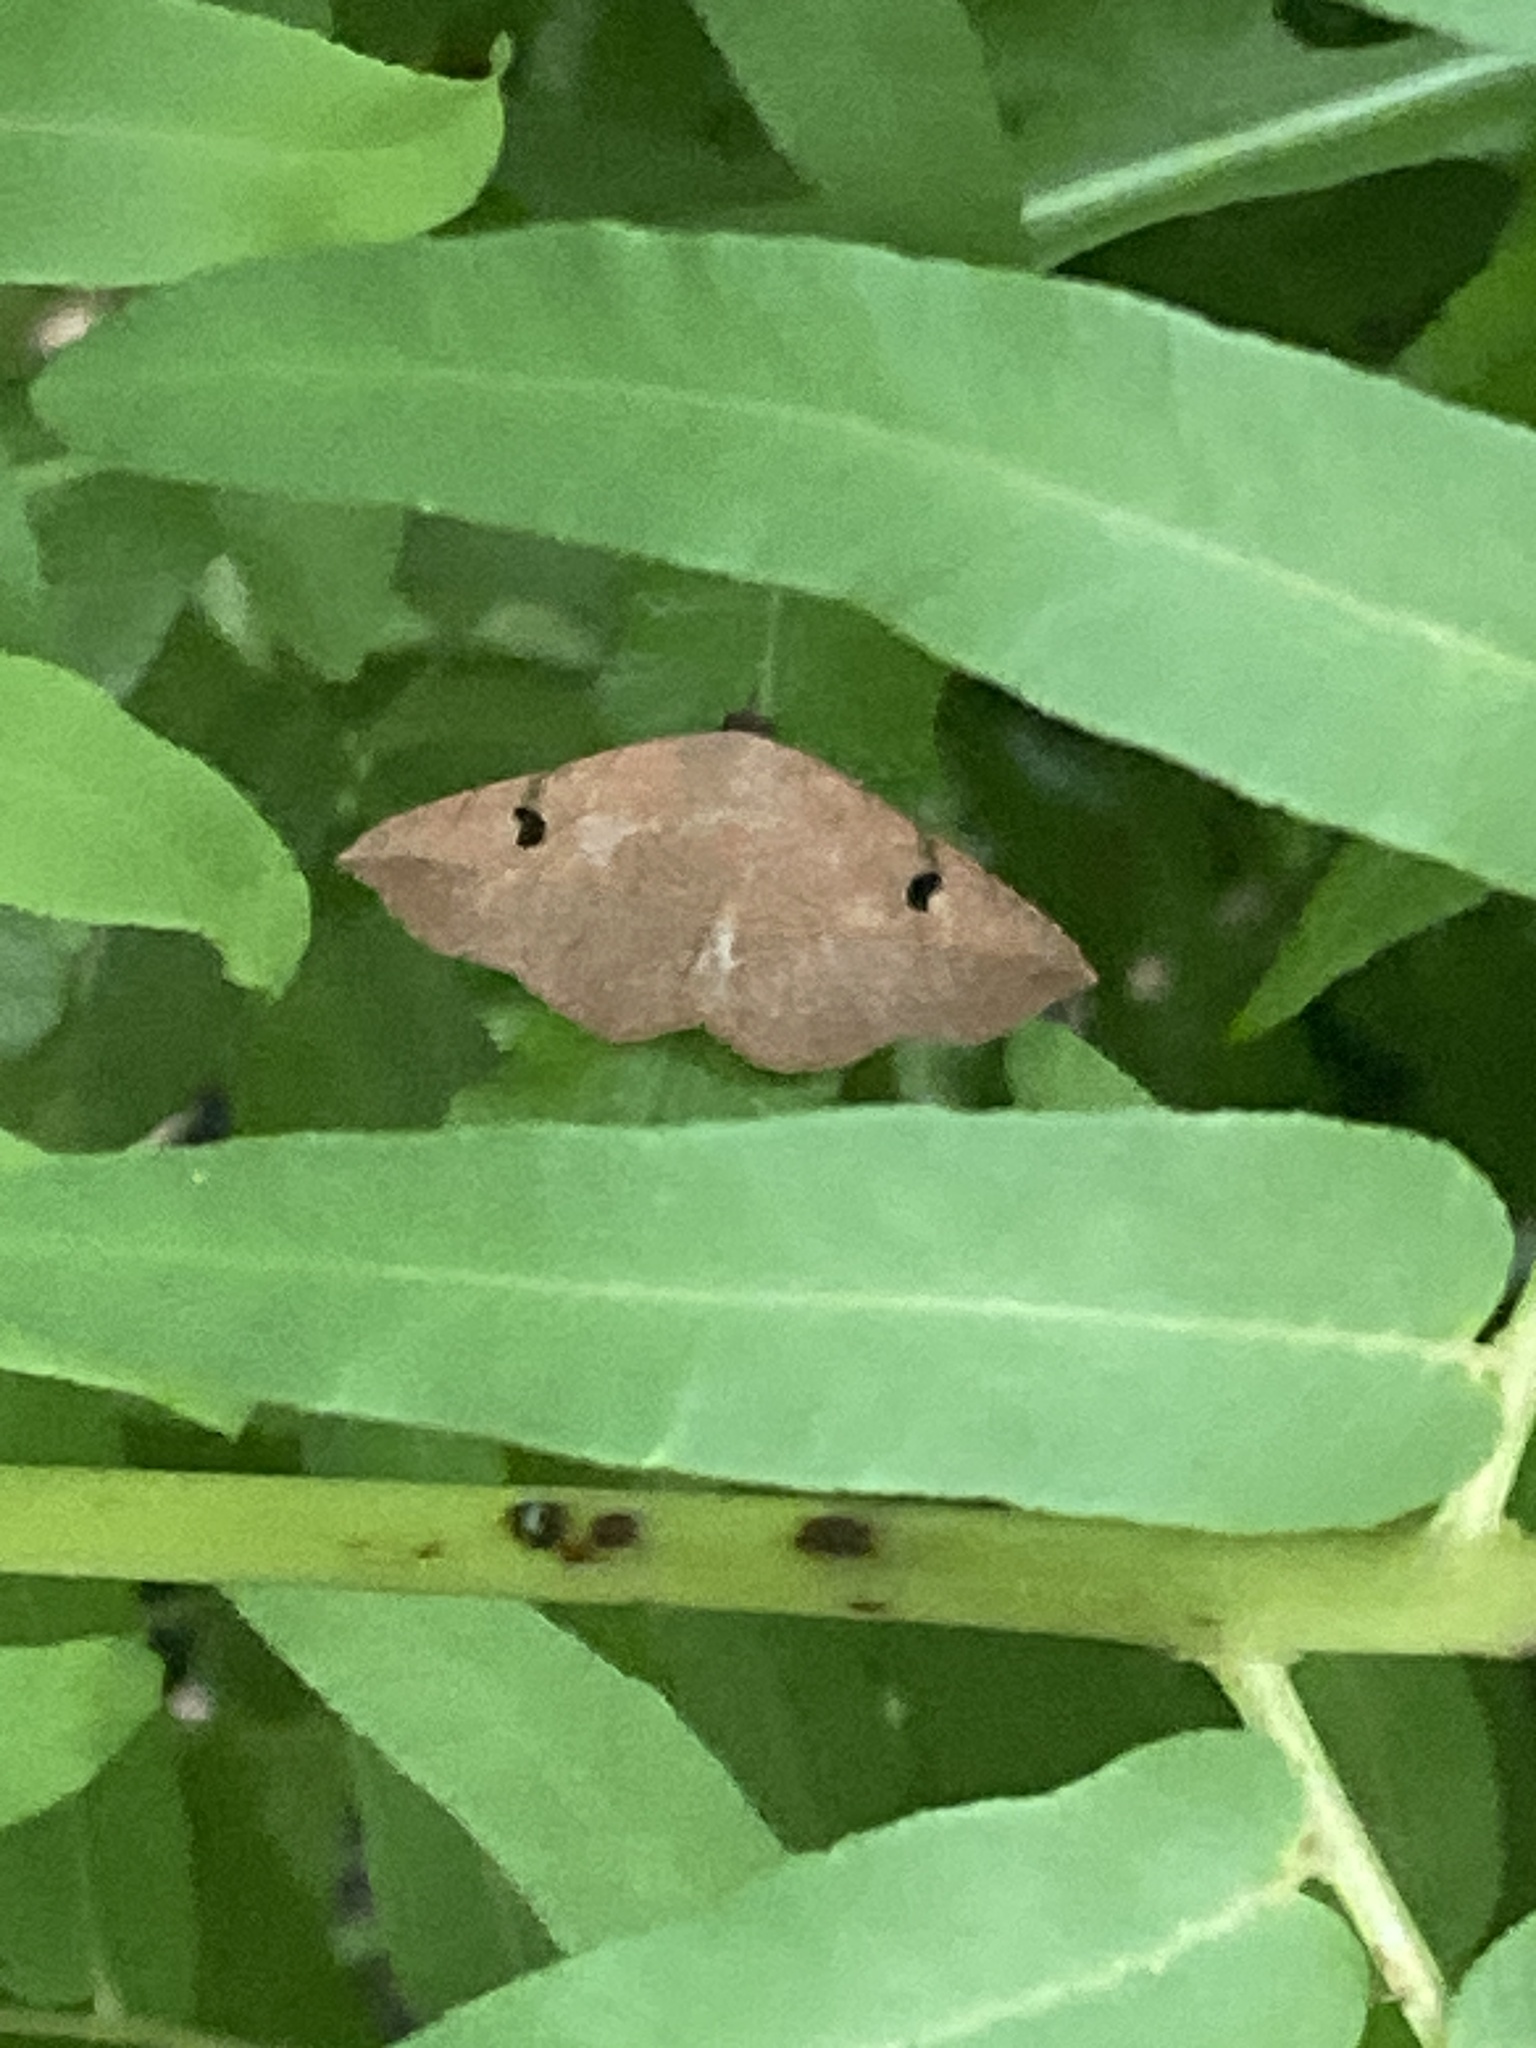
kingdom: Animalia
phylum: Arthropoda
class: Insecta
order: Lepidoptera
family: Erebidae
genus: Metallata
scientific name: Metallata absumens
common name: Brown leaf mimic
